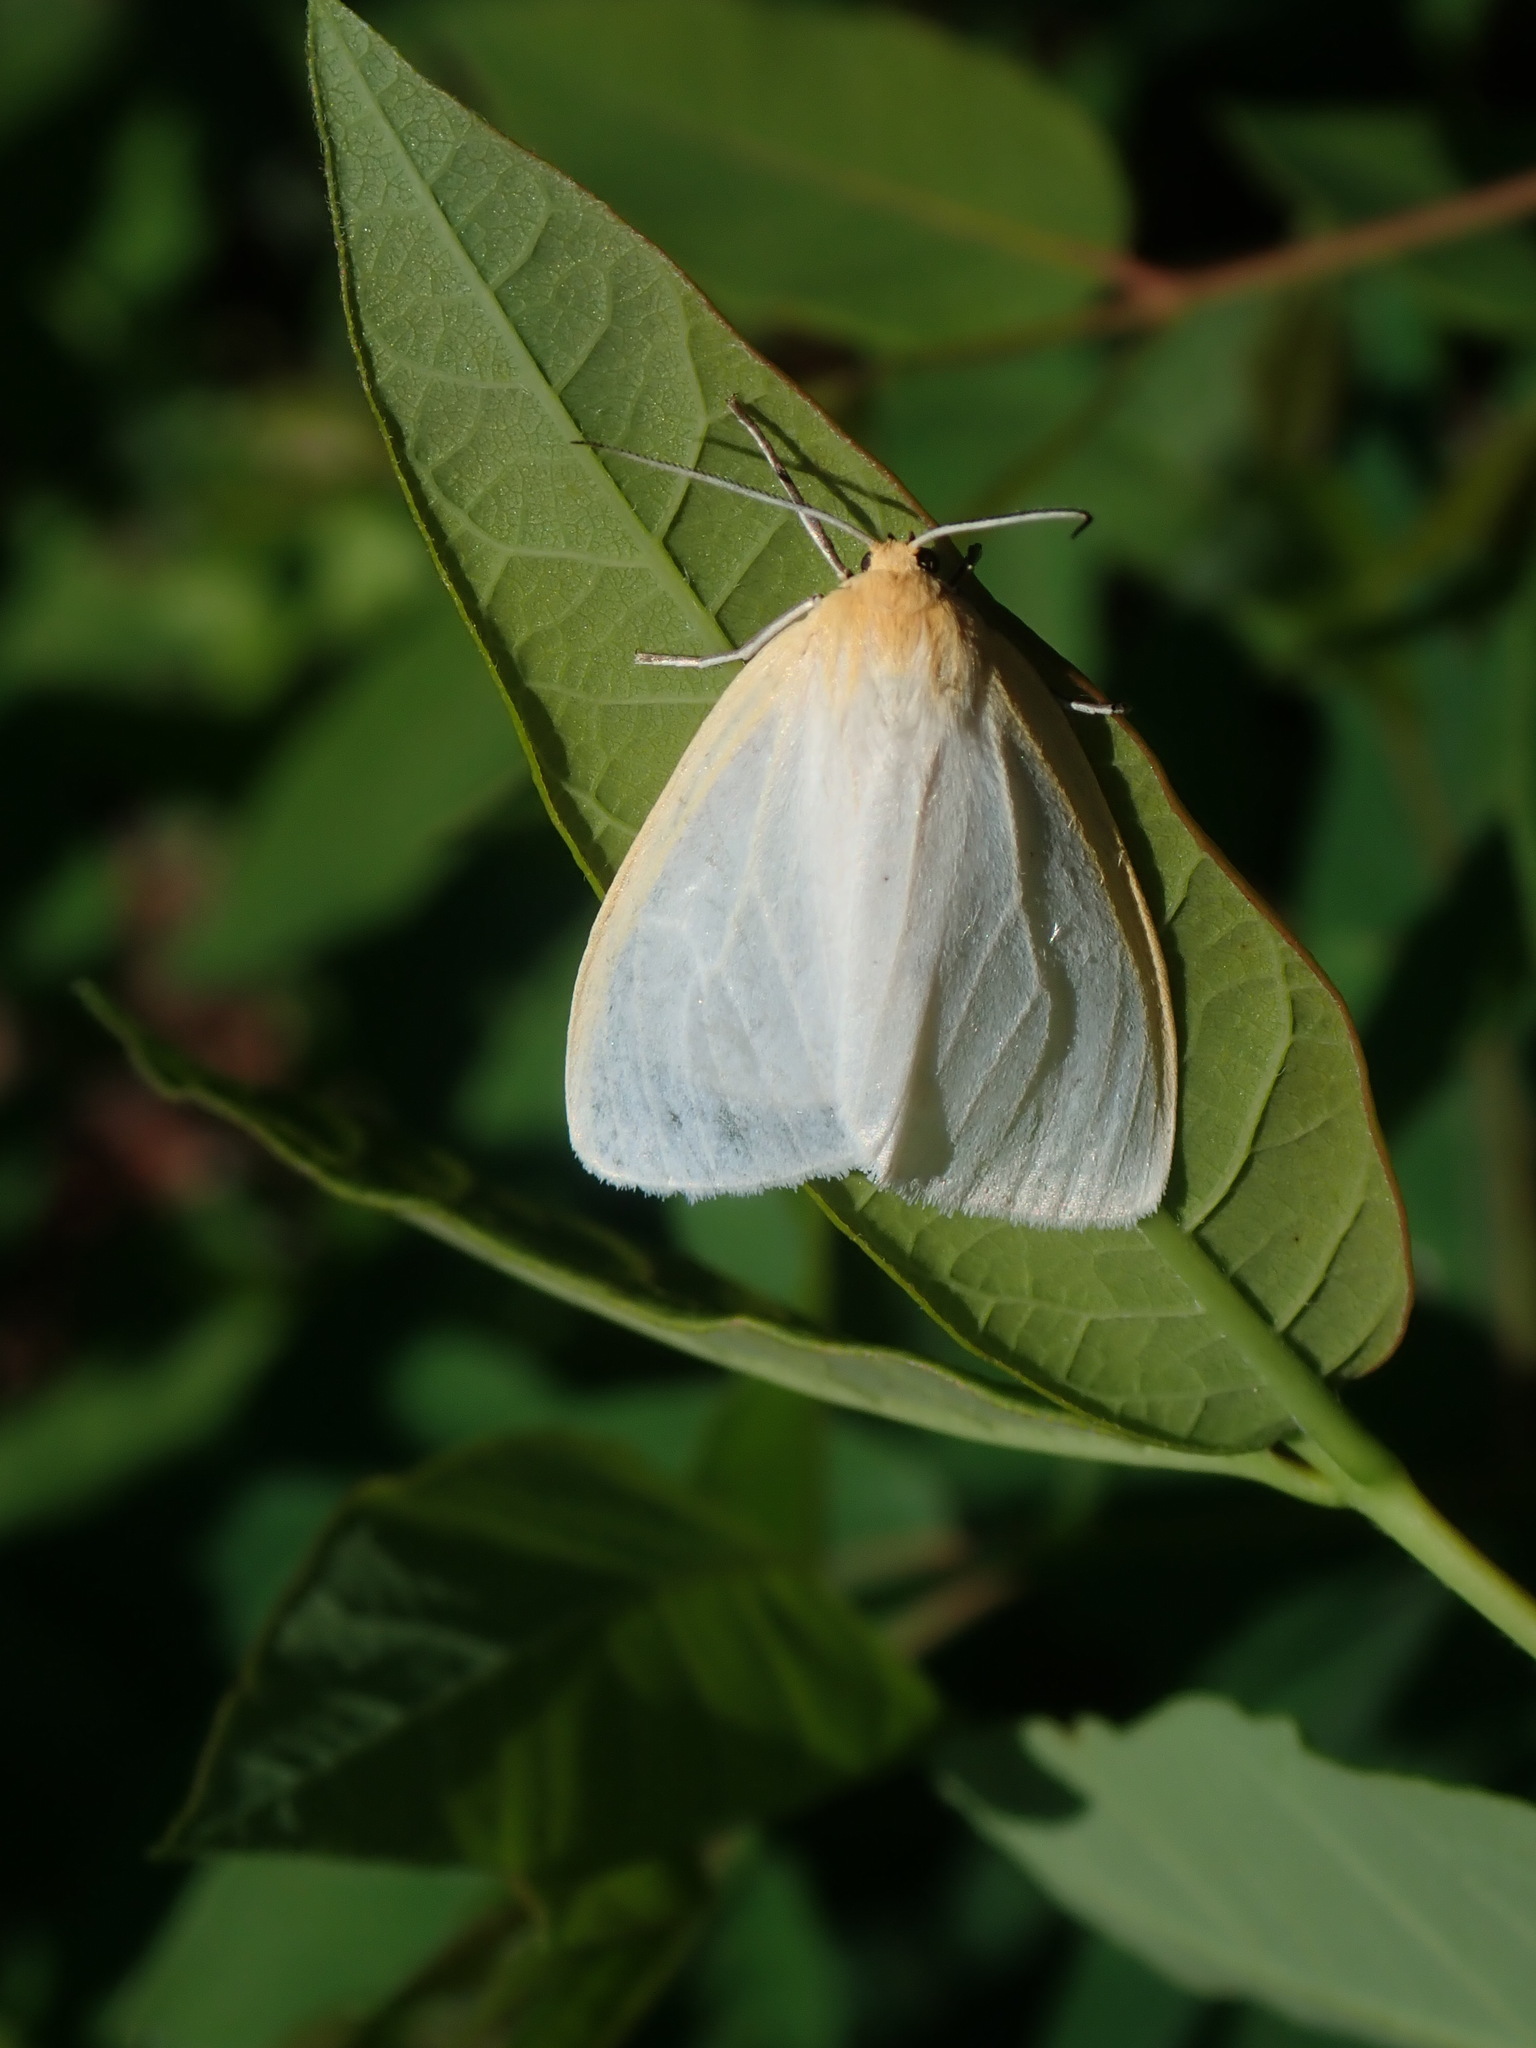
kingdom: Animalia
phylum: Arthropoda
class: Insecta
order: Lepidoptera
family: Erebidae
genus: Cycnia
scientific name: Cycnia tenera
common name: Delicate cycnia moth
